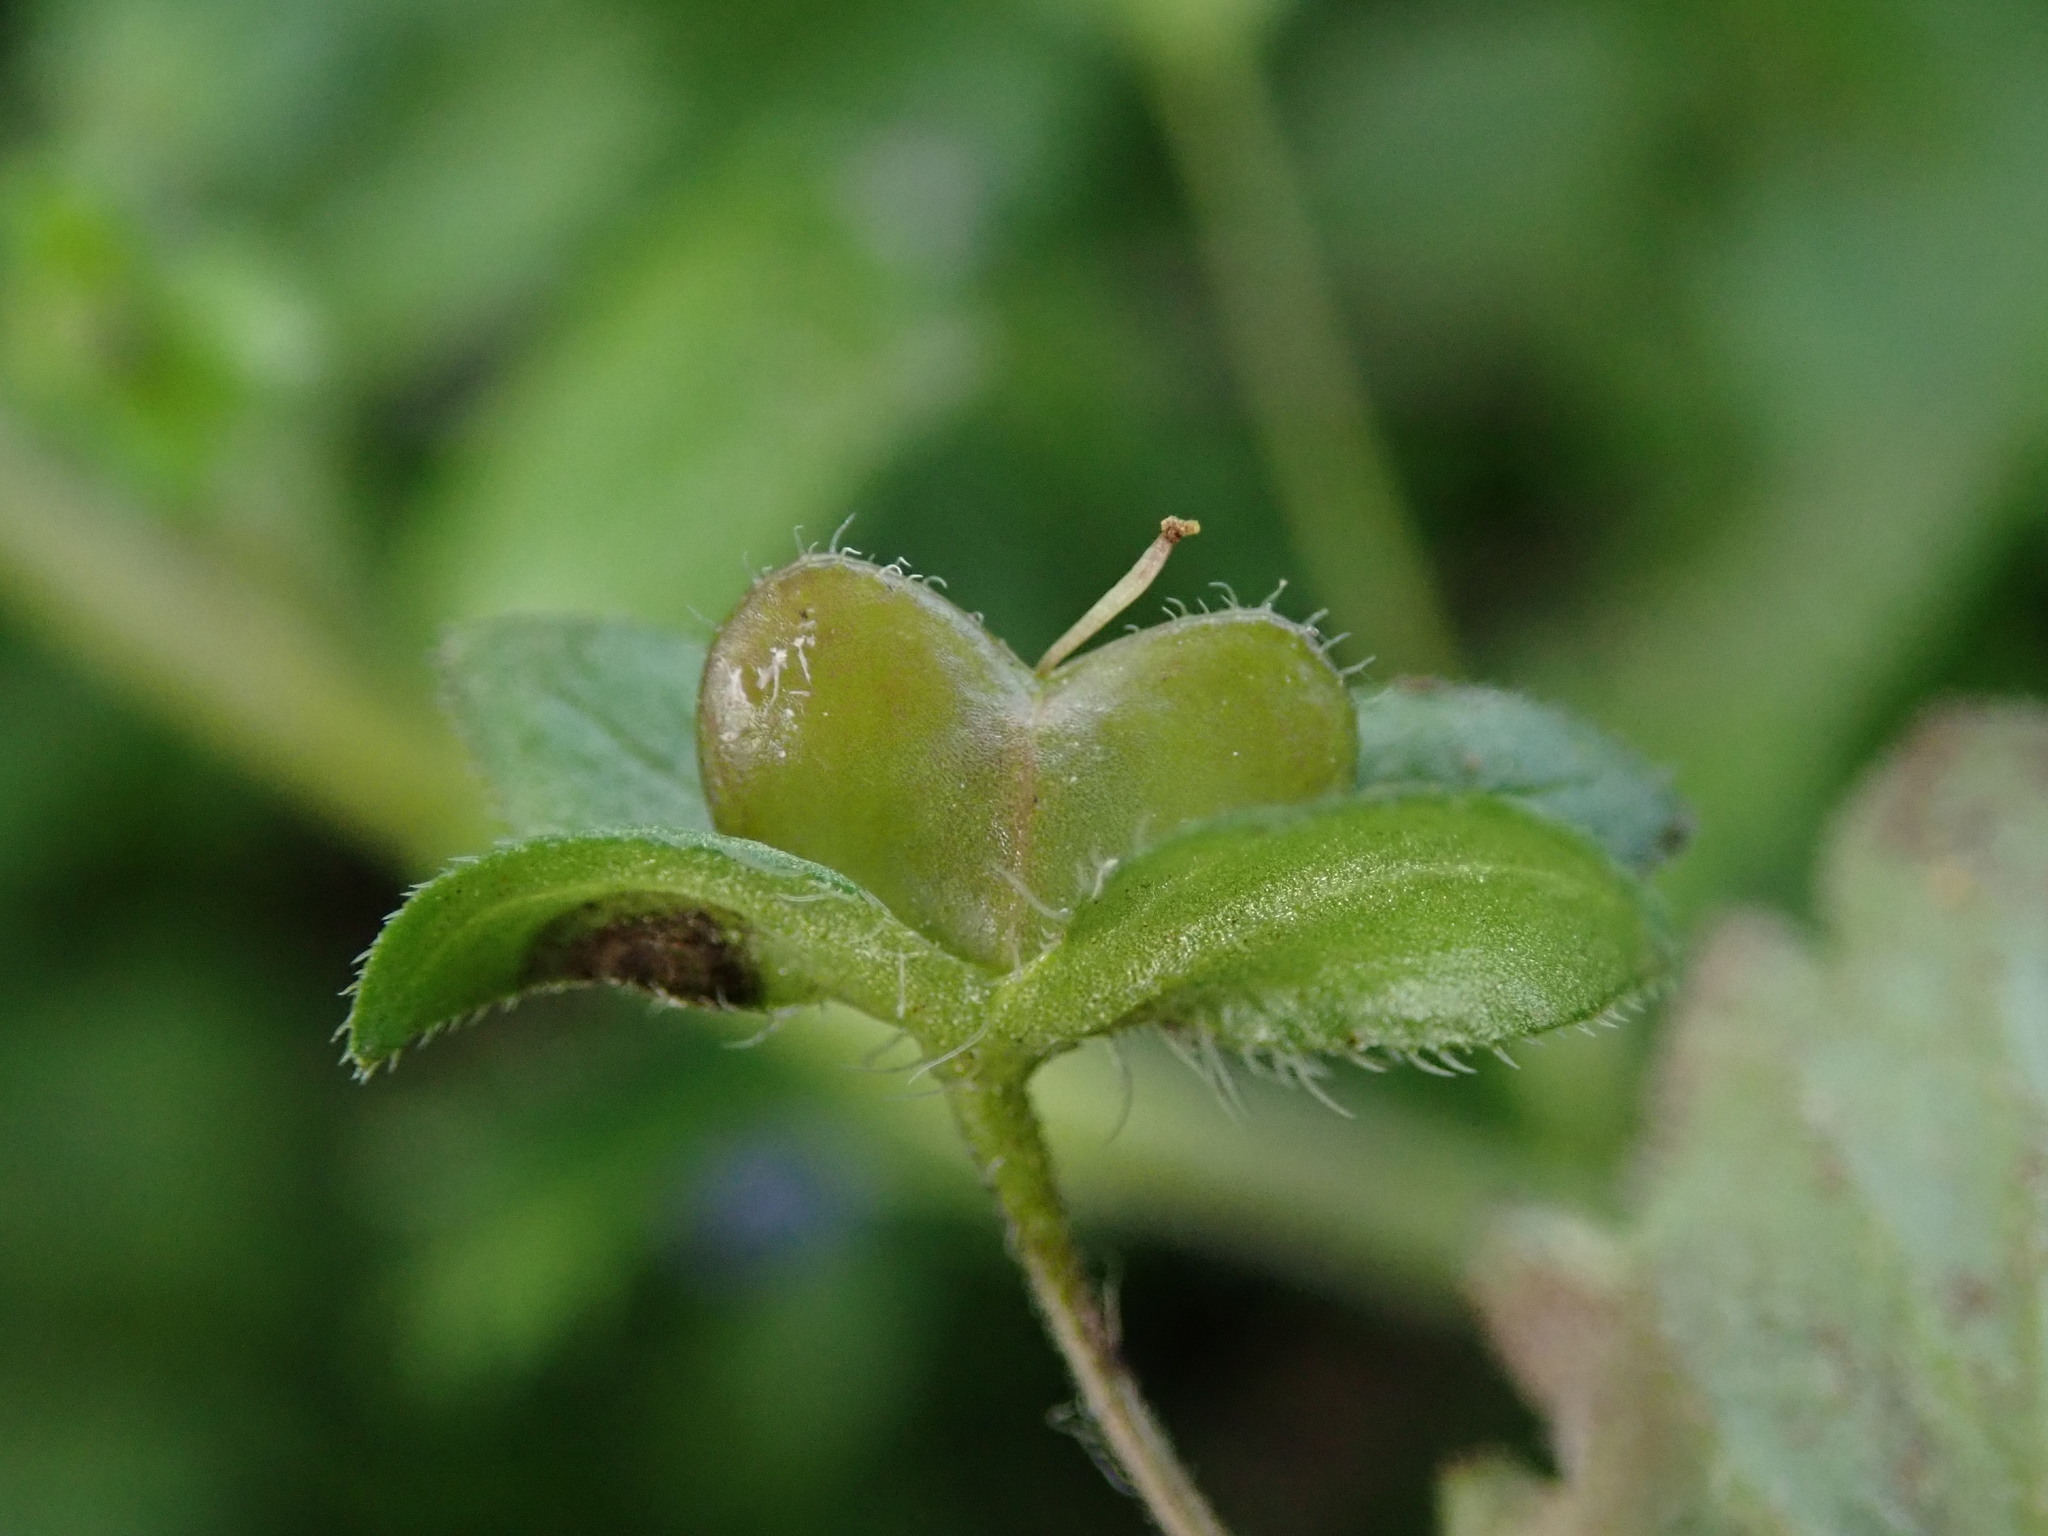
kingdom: Plantae
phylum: Tracheophyta
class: Magnoliopsida
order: Lamiales
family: Plantaginaceae
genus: Veronica
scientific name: Veronica persica
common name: Common field-speedwell
